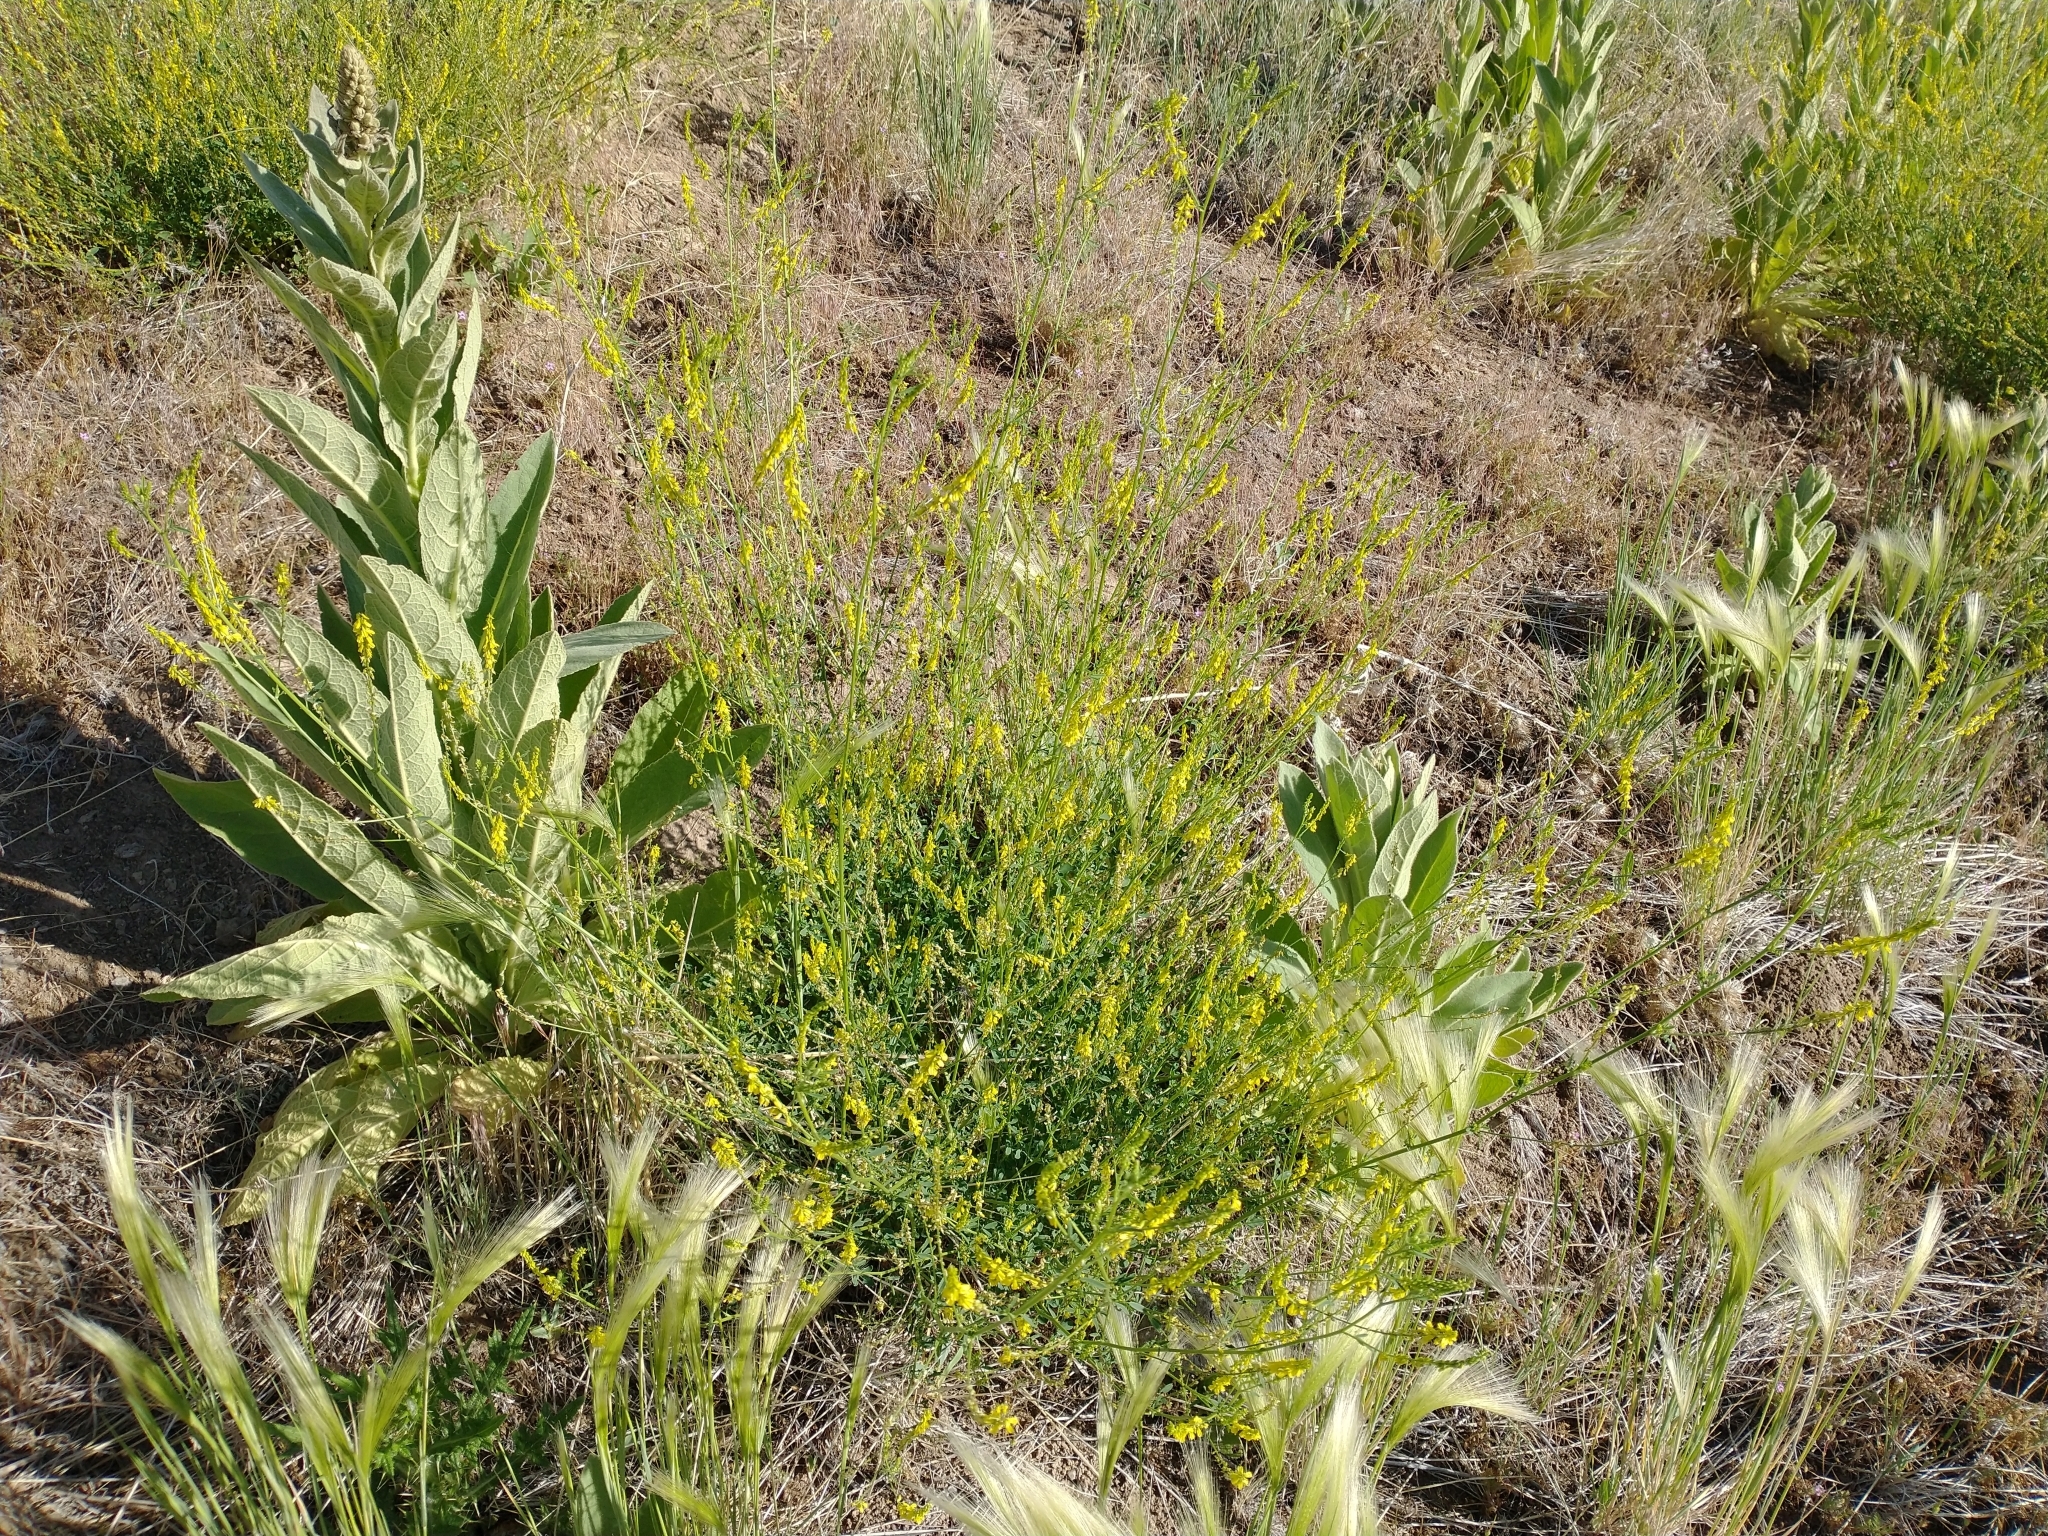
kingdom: Plantae
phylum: Tracheophyta
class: Magnoliopsida
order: Fabales
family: Fabaceae
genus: Melilotus
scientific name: Melilotus officinalis
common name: Sweetclover
